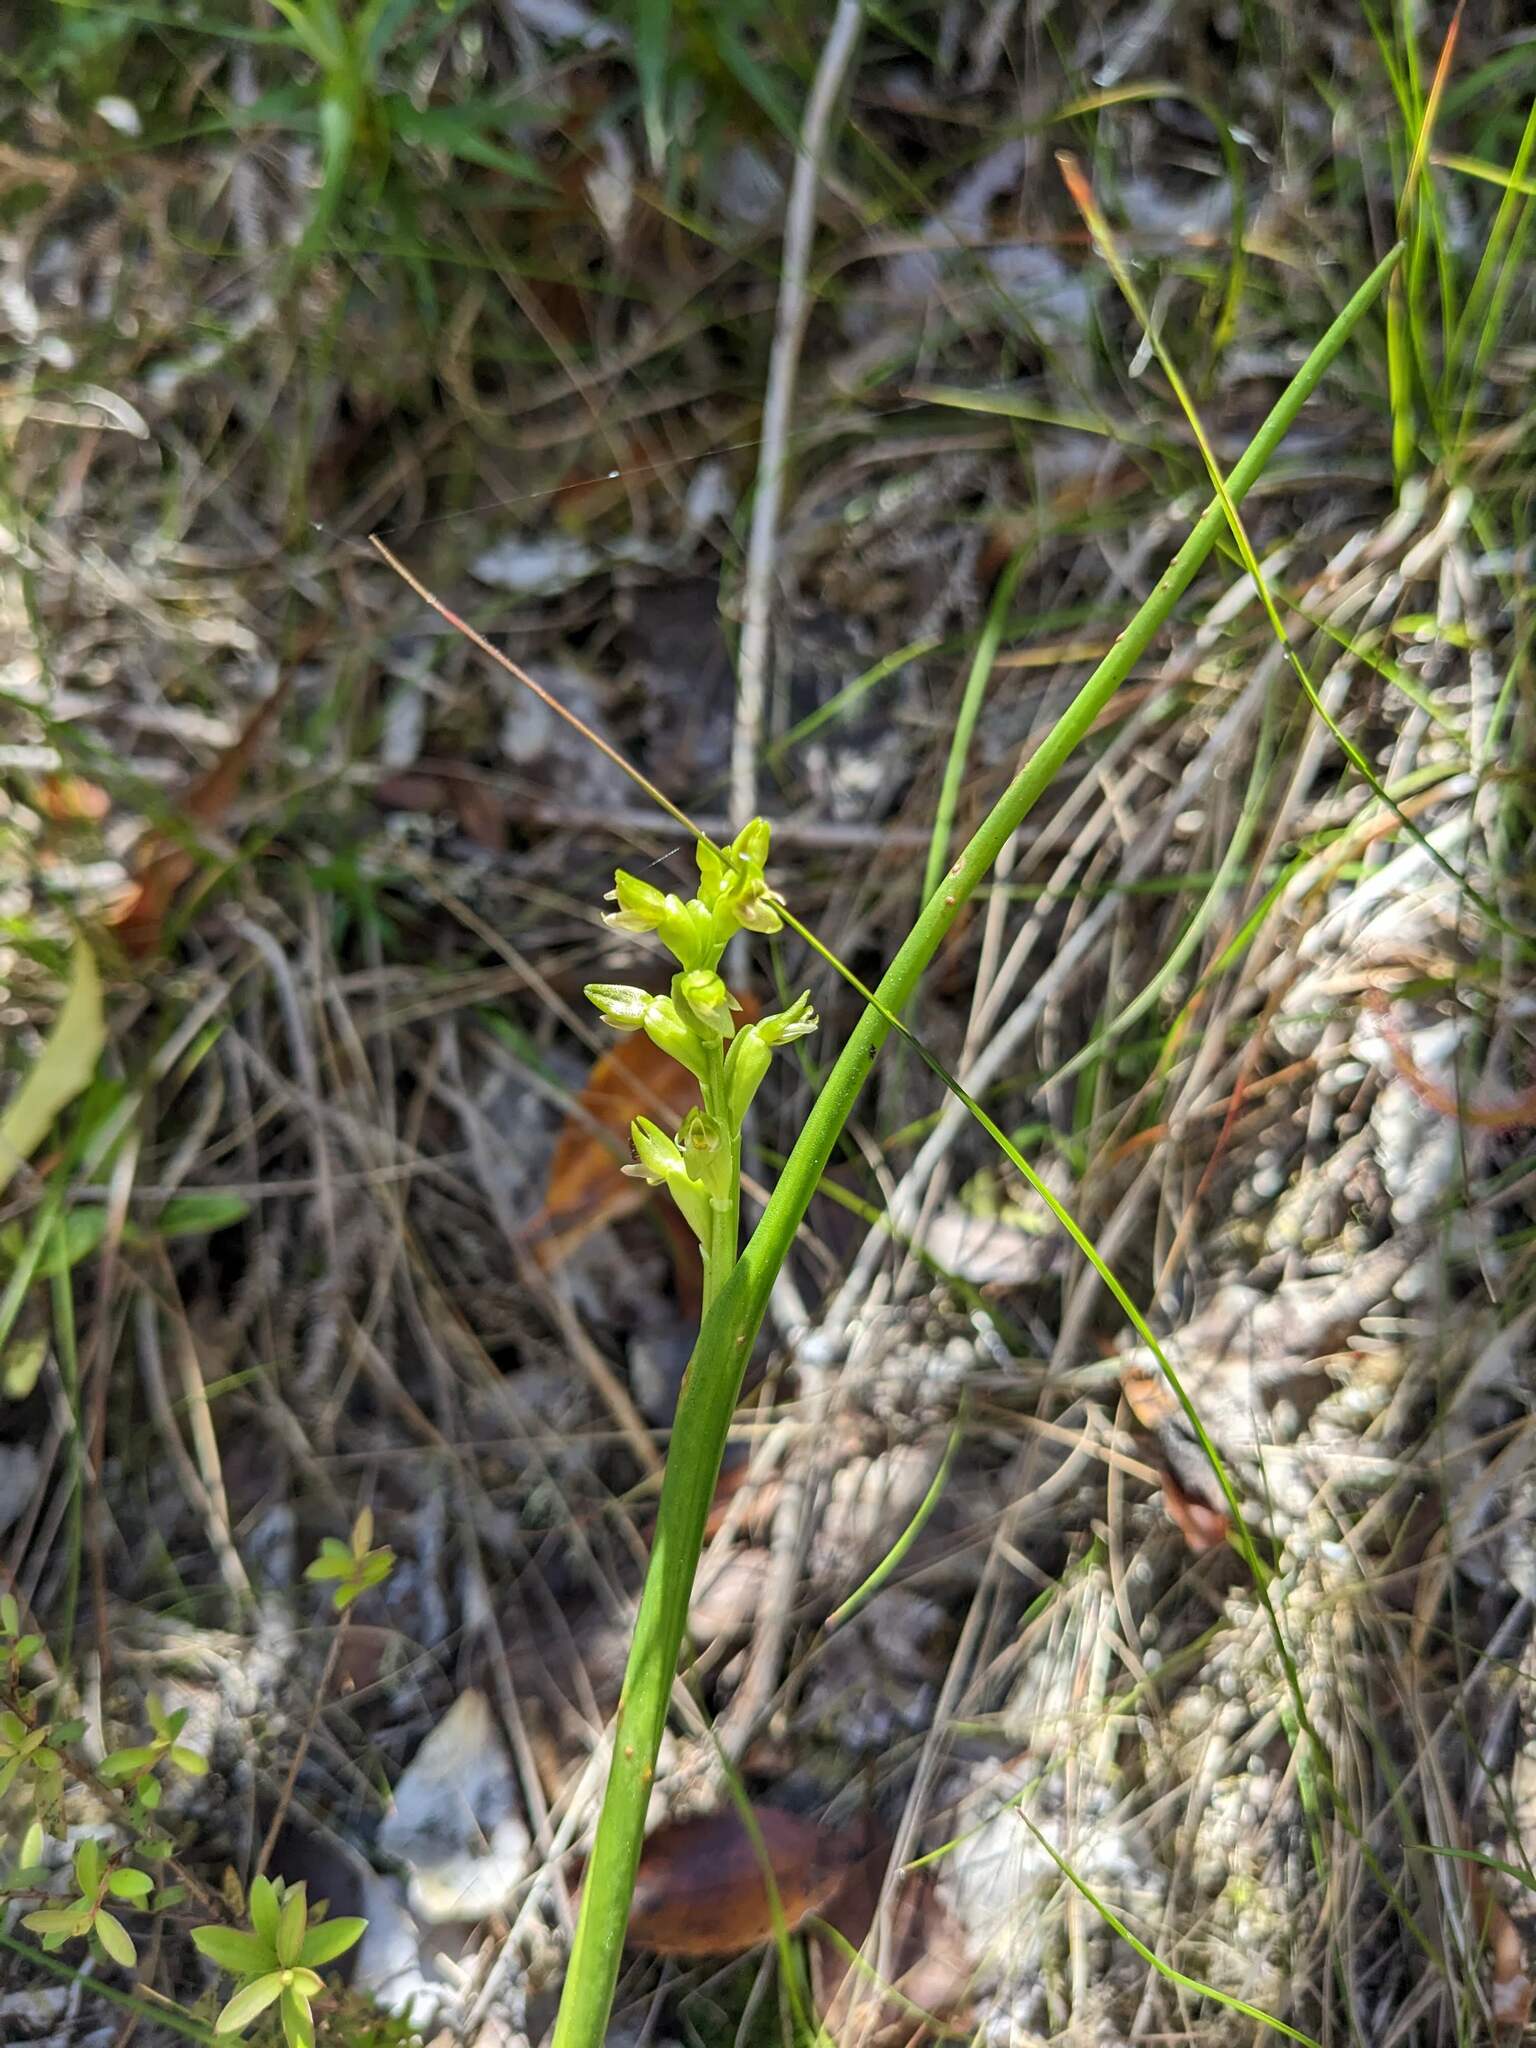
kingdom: Plantae
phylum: Tracheophyta
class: Liliopsida
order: Asparagales
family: Orchidaceae
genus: Prasophyllum
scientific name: Prasophyllum colensoi
